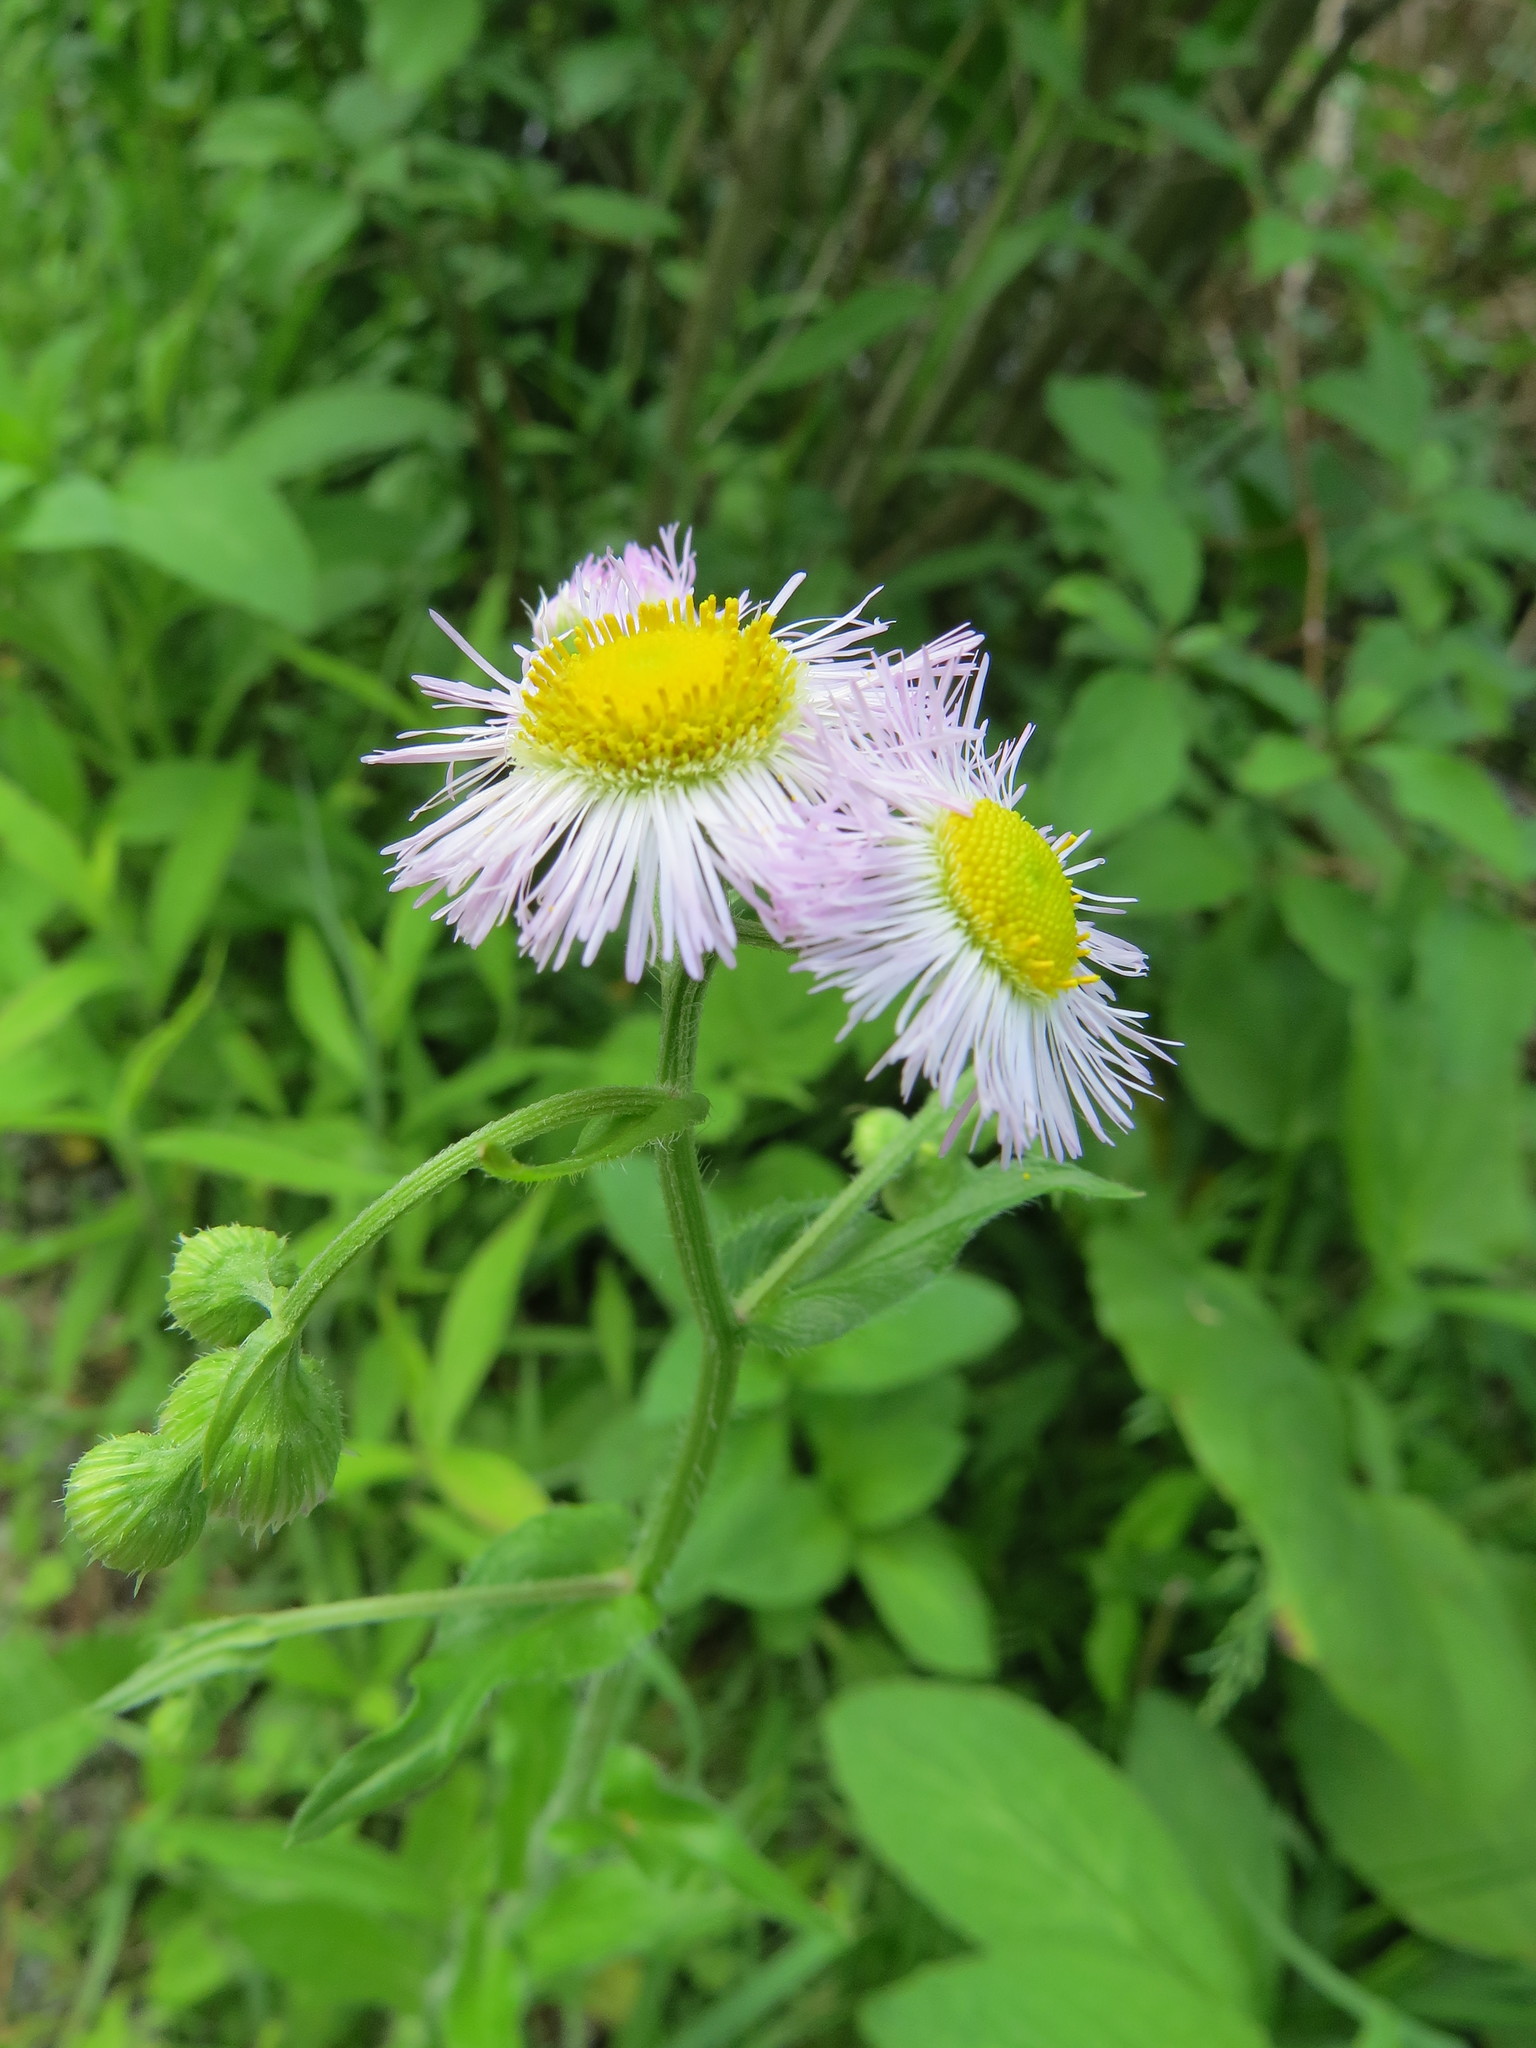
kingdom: Plantae
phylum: Tracheophyta
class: Magnoliopsida
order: Asterales
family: Asteraceae
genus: Erigeron
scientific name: Erigeron philadelphicus
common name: Robin's-plantain
